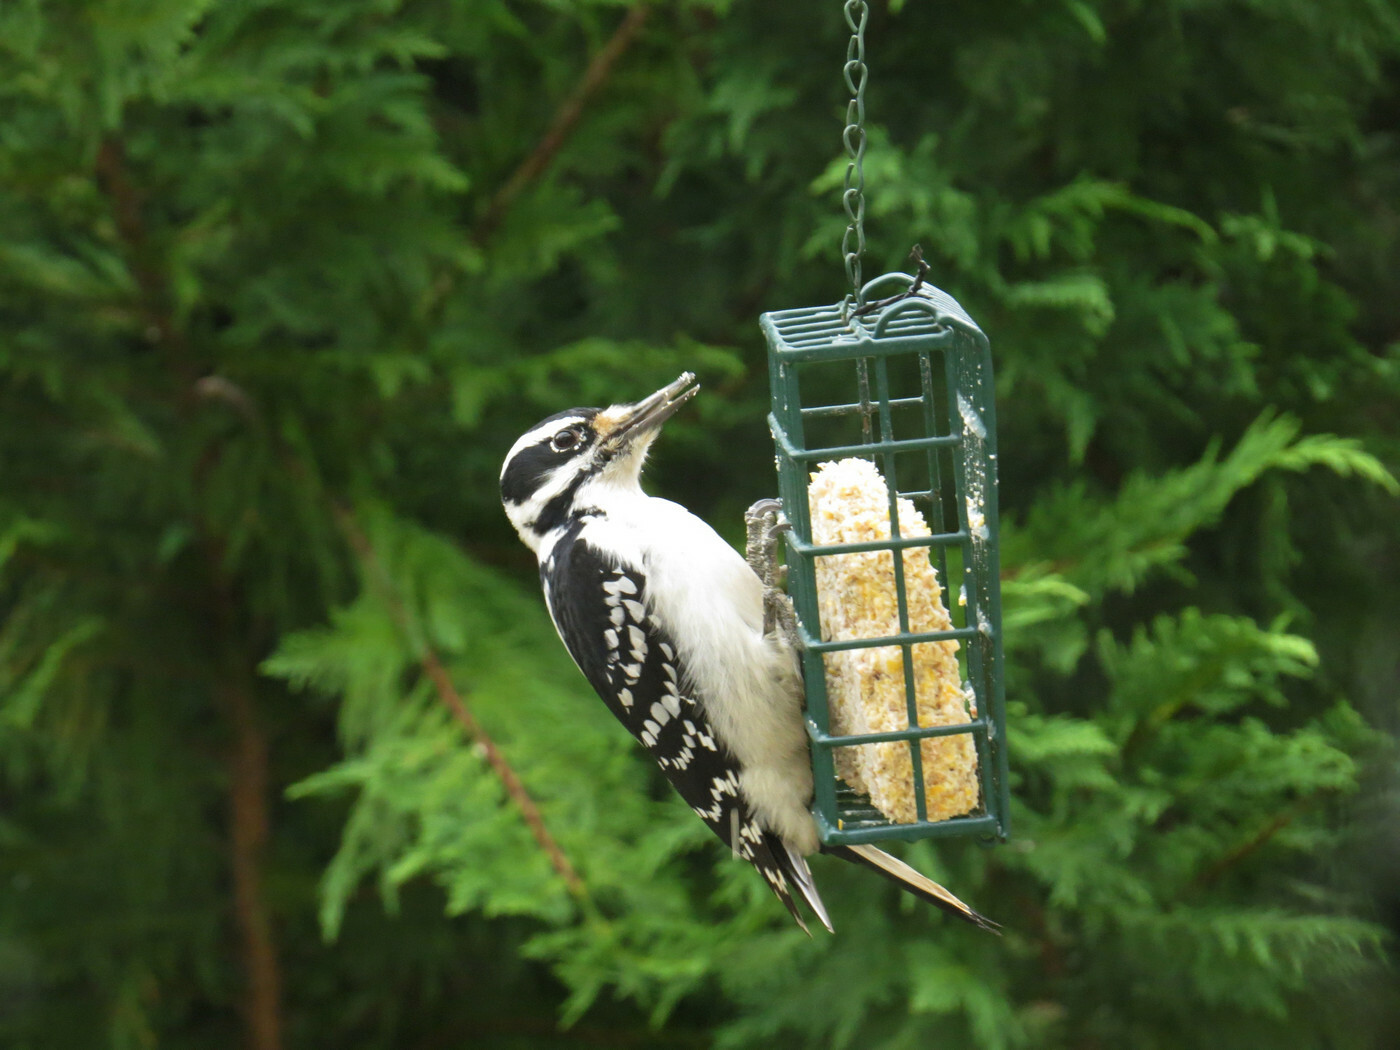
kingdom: Animalia
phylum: Chordata
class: Aves
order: Piciformes
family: Picidae
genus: Leuconotopicus
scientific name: Leuconotopicus villosus
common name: Hairy woodpecker
